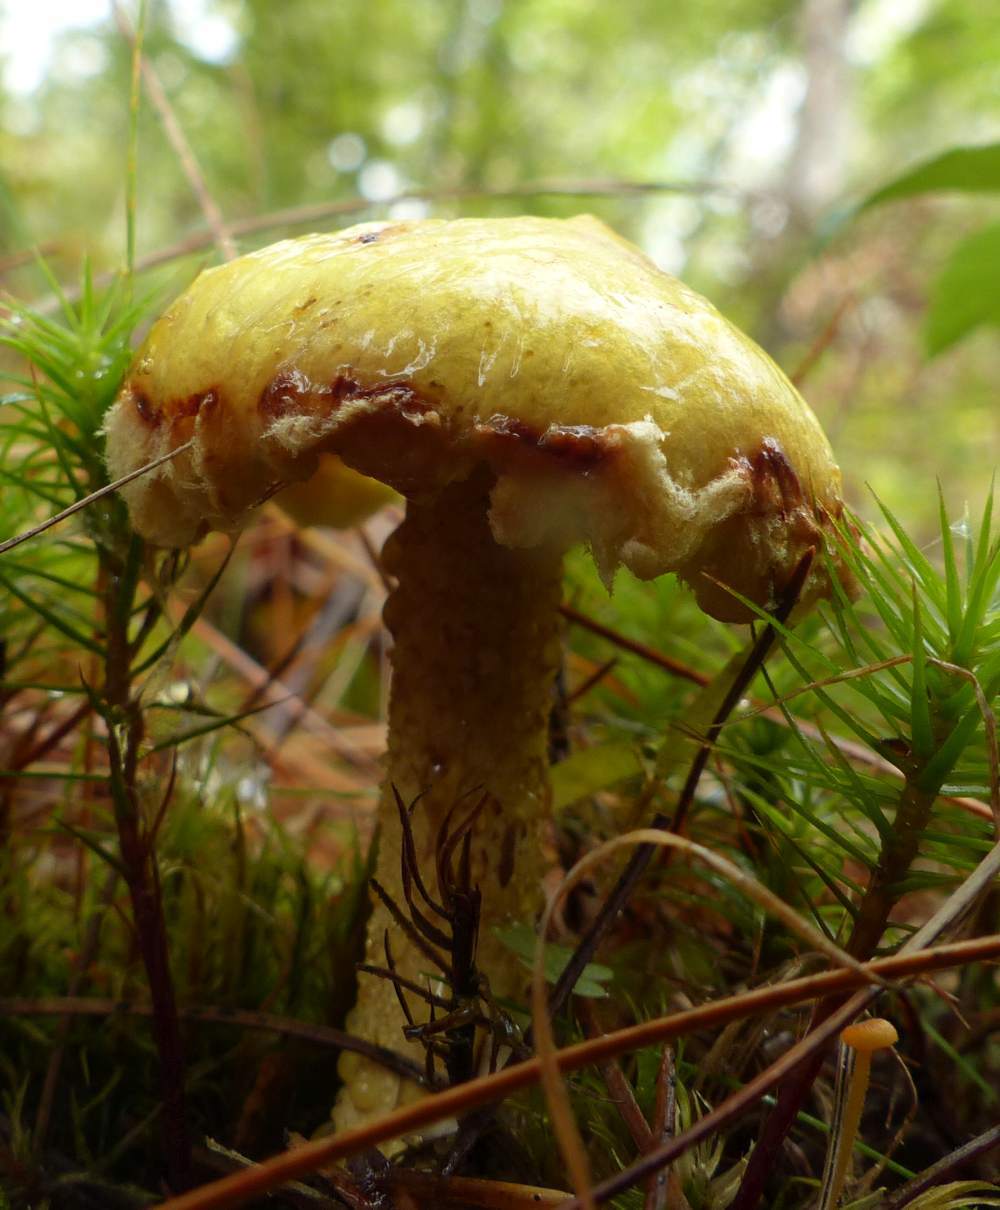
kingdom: Fungi
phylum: Basidiomycota
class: Agaricomycetes
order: Boletales
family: Suillaceae
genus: Suillus
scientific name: Suillus americanus
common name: Chicken fat mushroom
